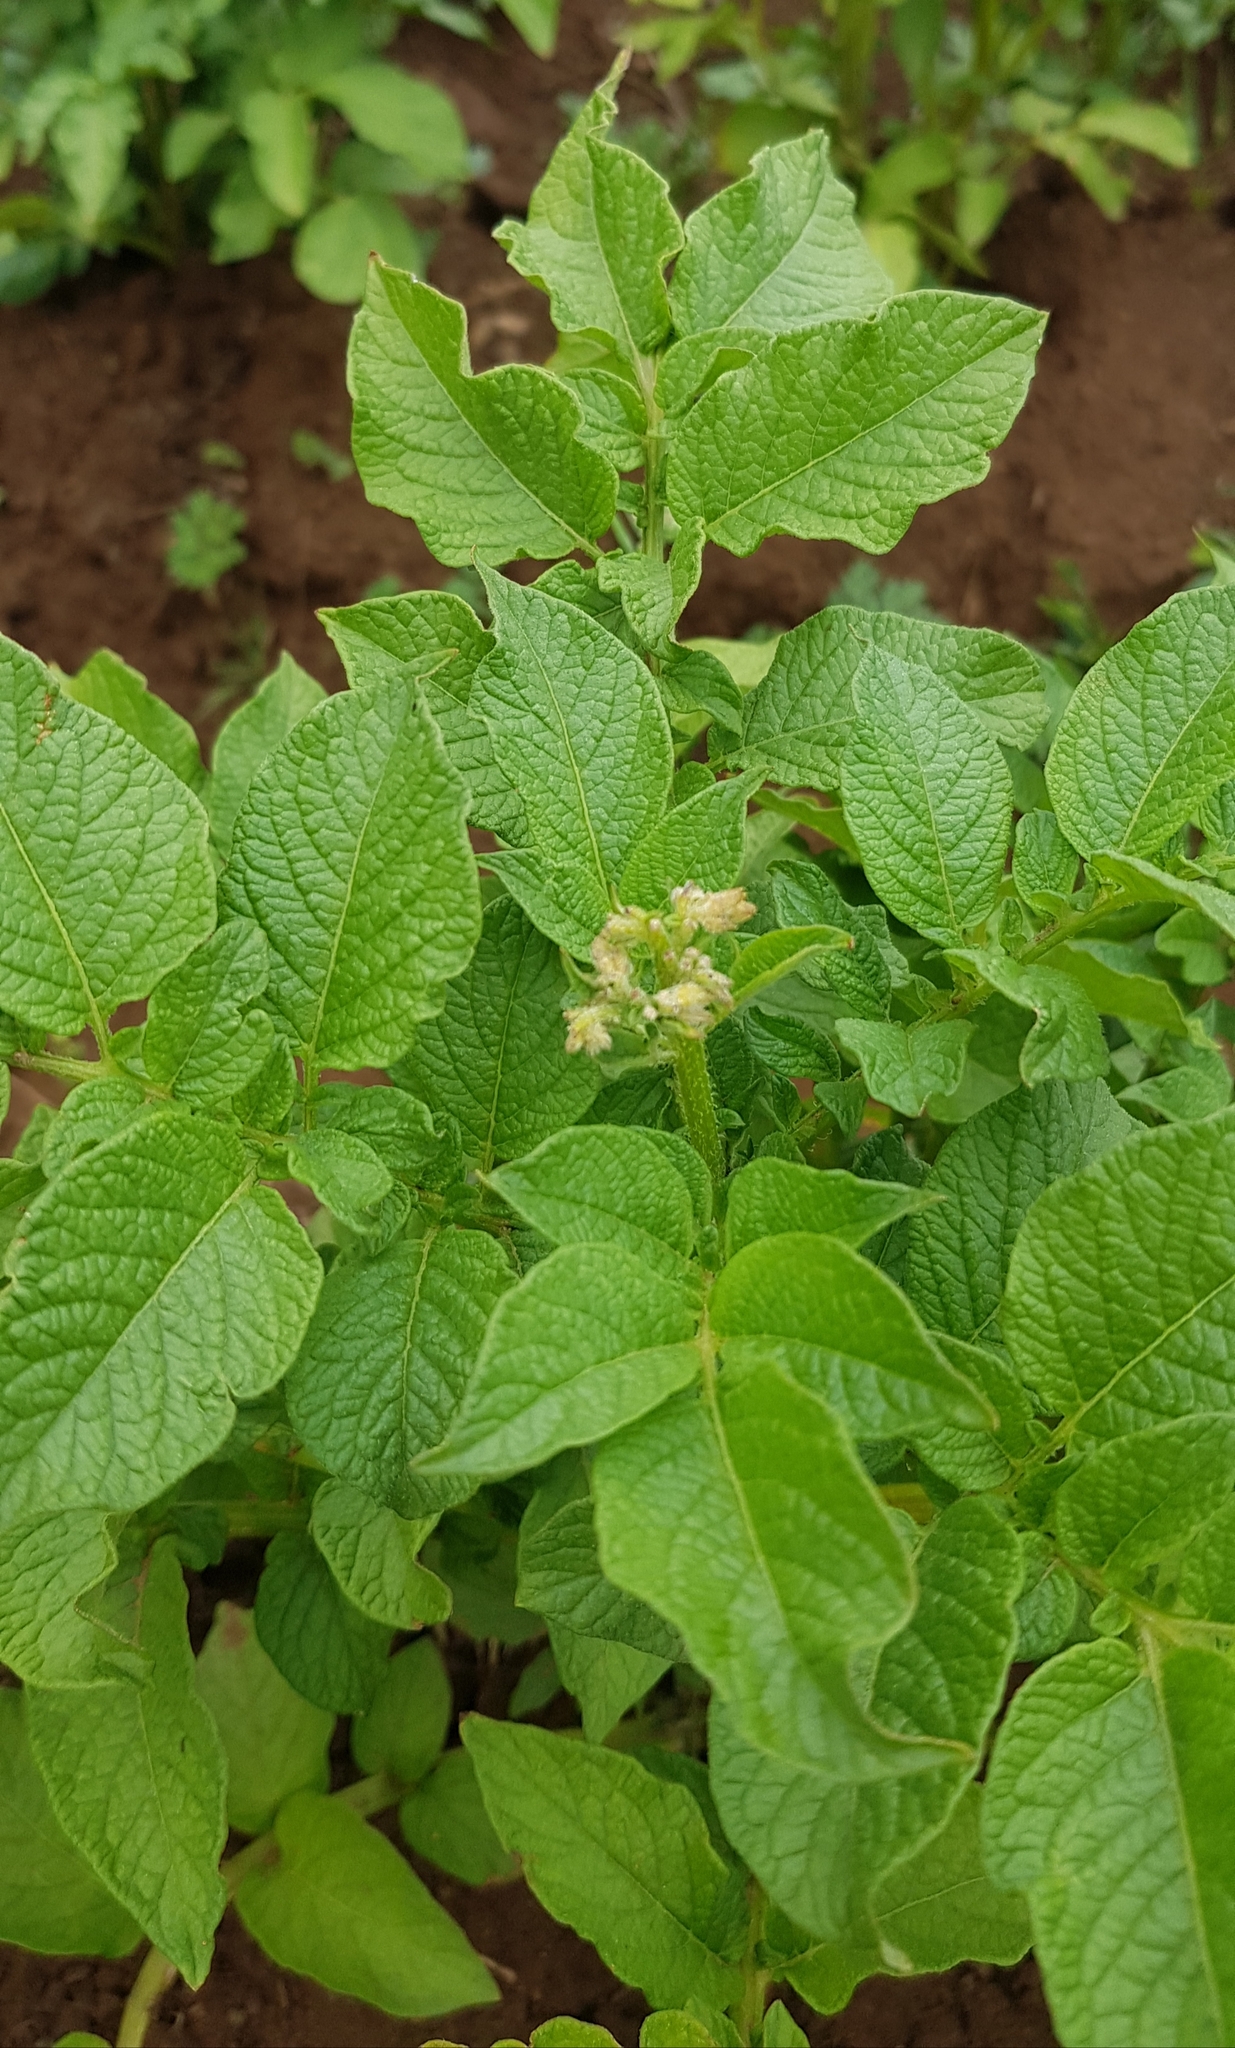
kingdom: Plantae
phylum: Tracheophyta
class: Magnoliopsida
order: Solanales
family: Solanaceae
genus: Solanum
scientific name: Solanum tuberosum
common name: Potato
